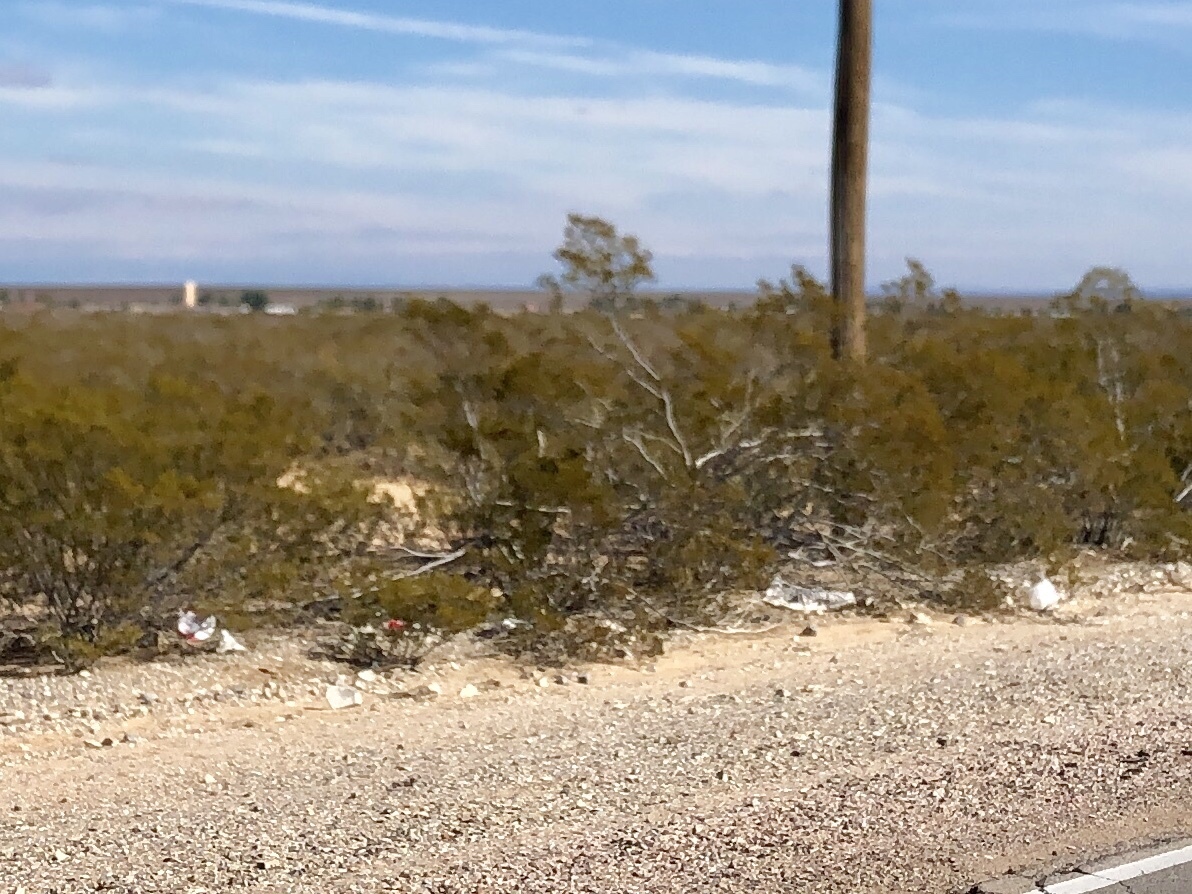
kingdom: Plantae
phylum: Tracheophyta
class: Magnoliopsida
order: Zygophyllales
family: Zygophyllaceae
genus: Larrea
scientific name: Larrea tridentata
